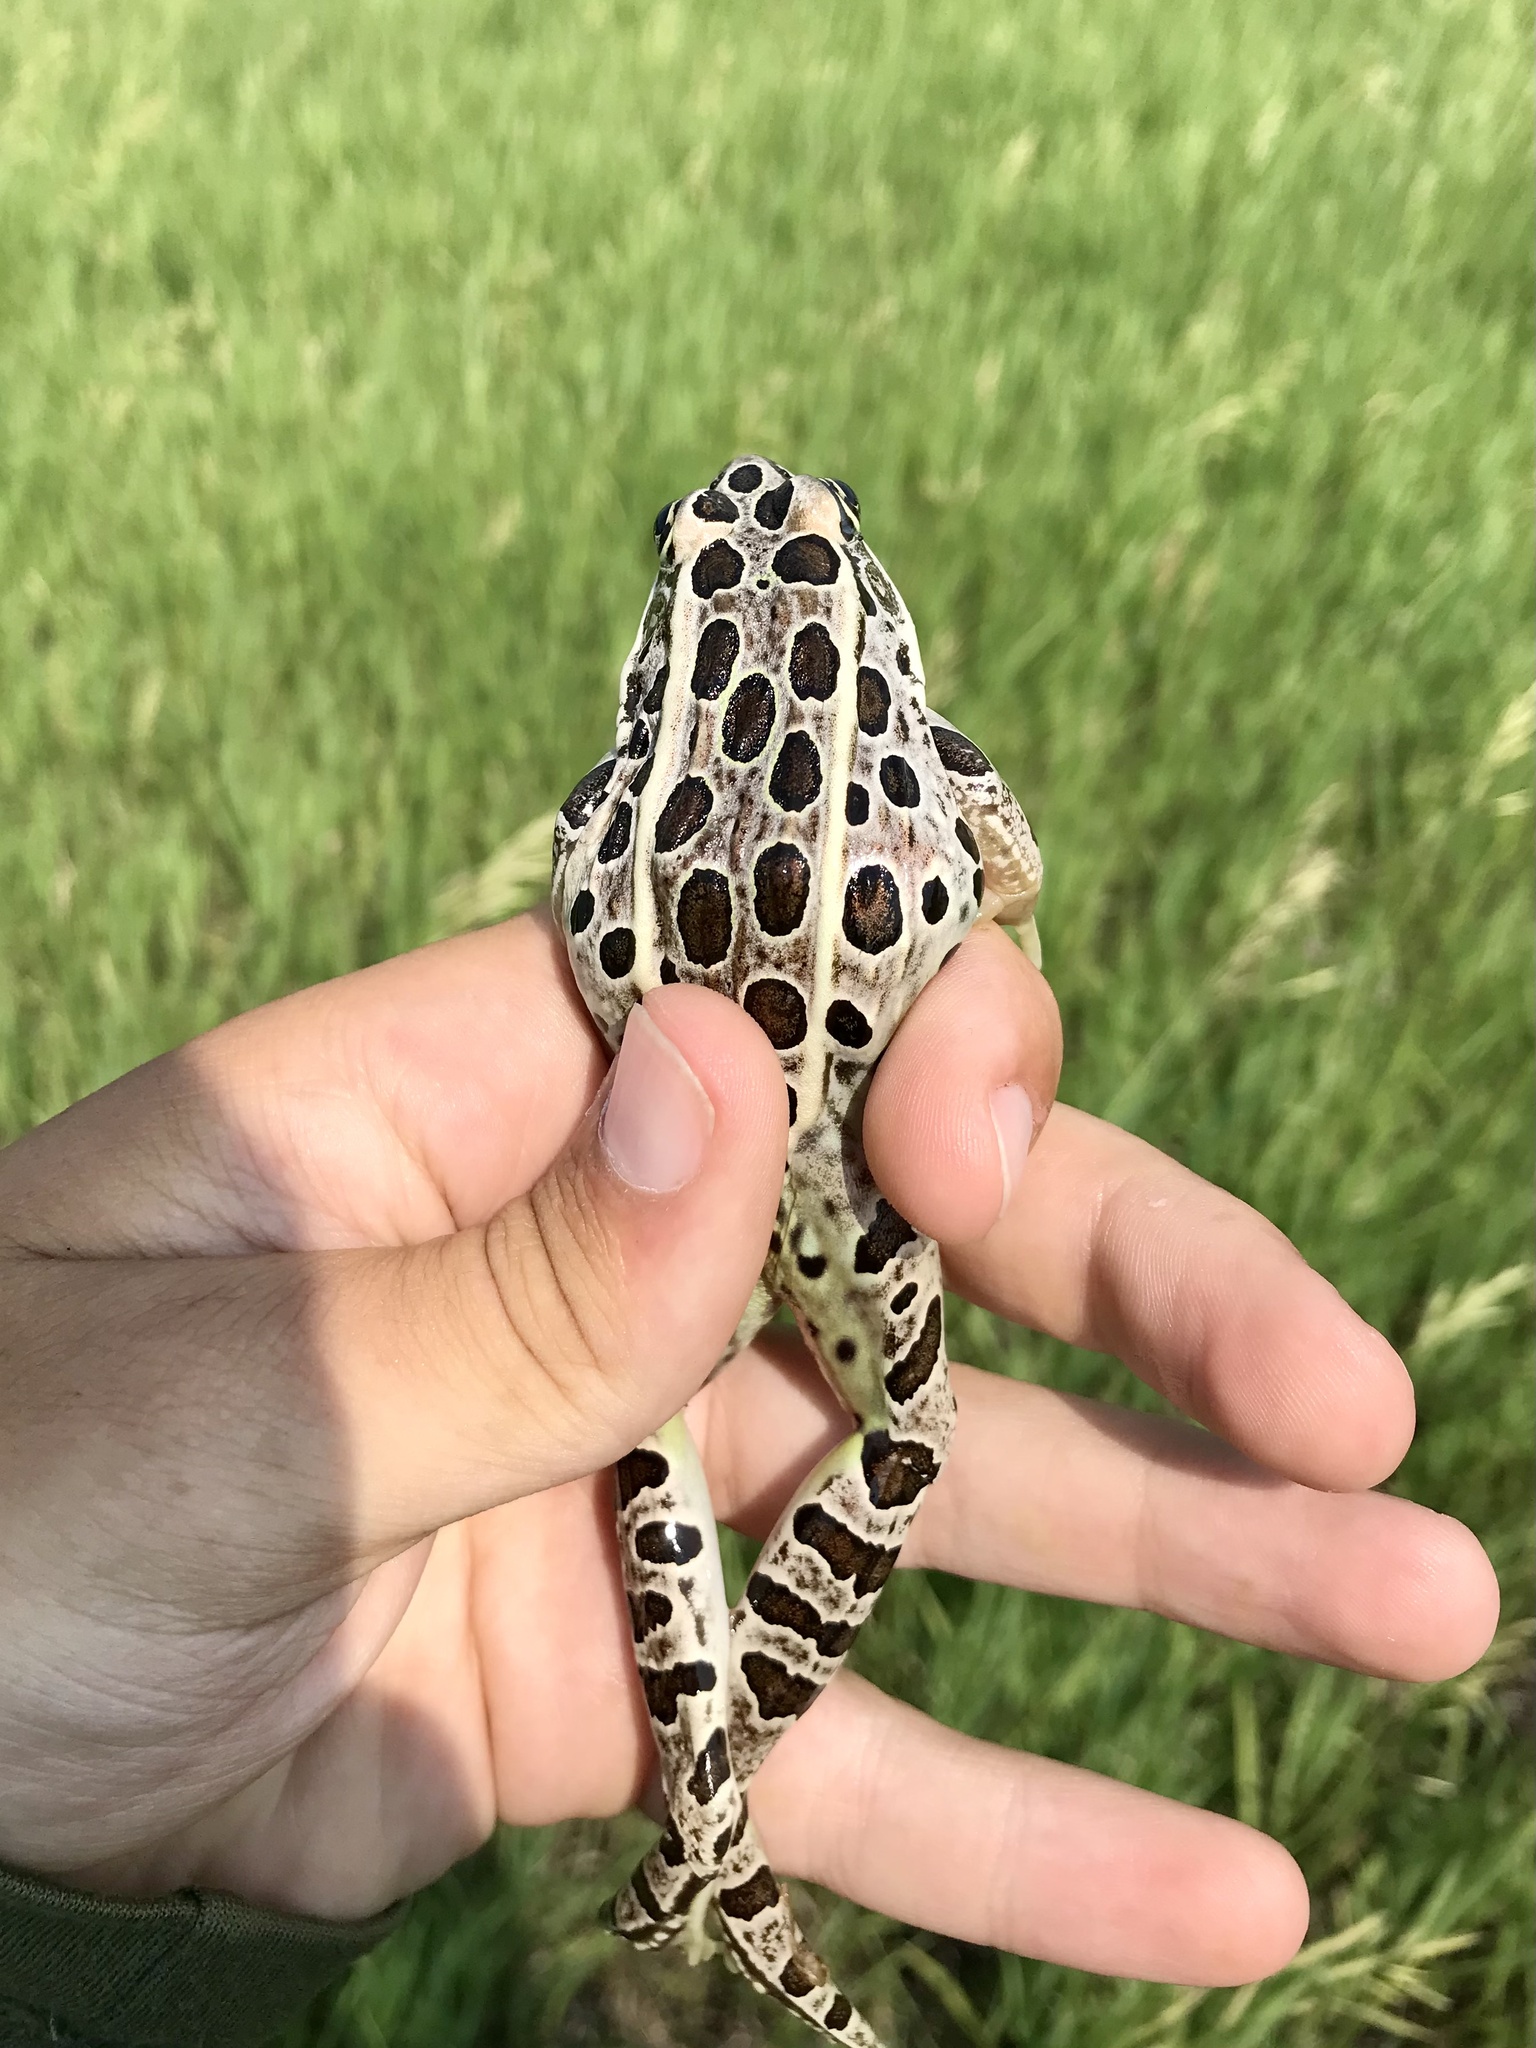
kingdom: Animalia
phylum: Chordata
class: Amphibia
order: Anura
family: Ranidae
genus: Lithobates
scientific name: Lithobates pipiens
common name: Northern leopard frog
